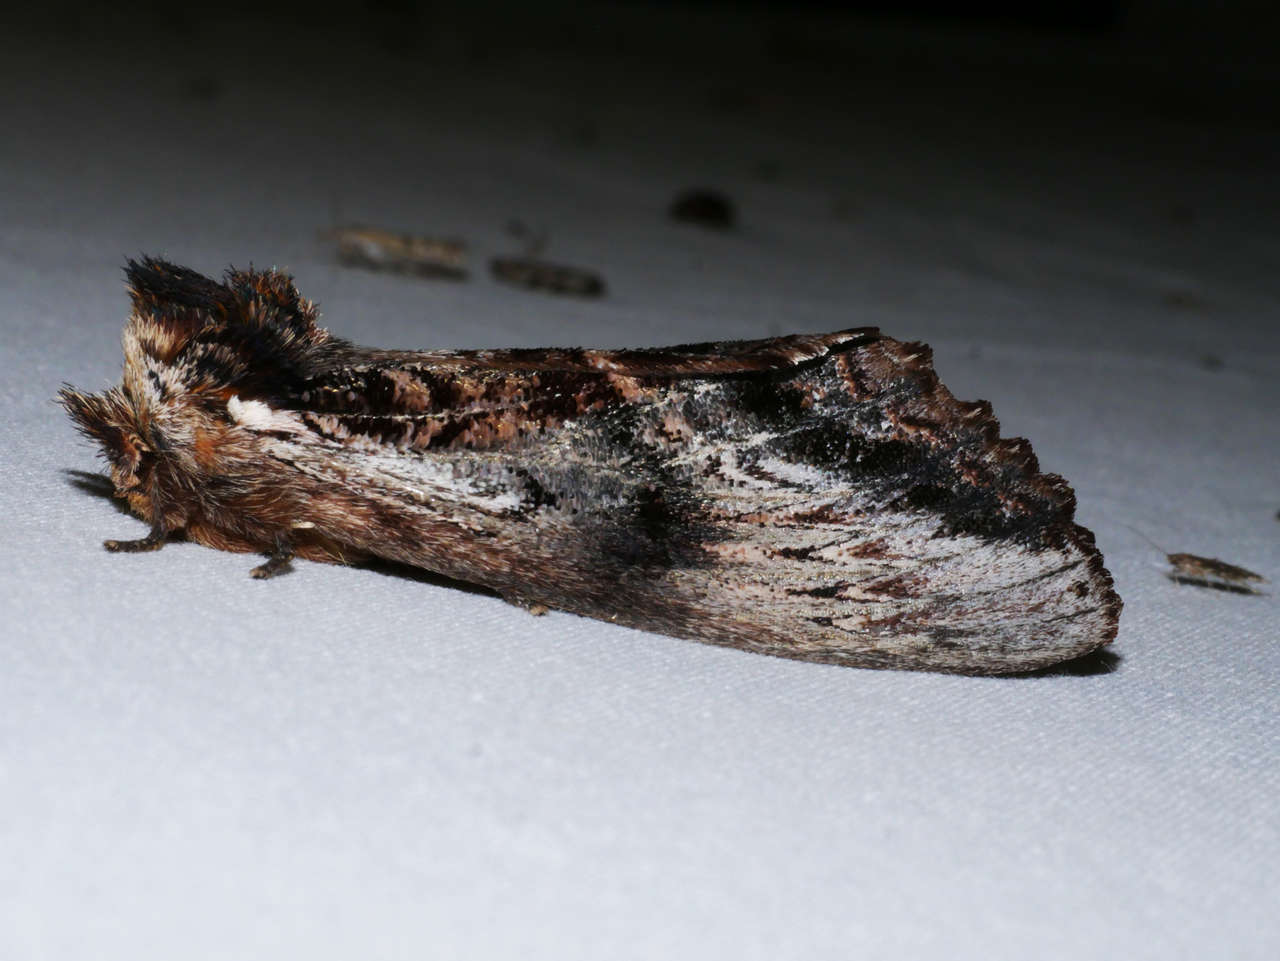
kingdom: Animalia
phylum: Arthropoda
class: Insecta
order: Lepidoptera
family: Notodontidae
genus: Hylaeora
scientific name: Hylaeora eucalypti
